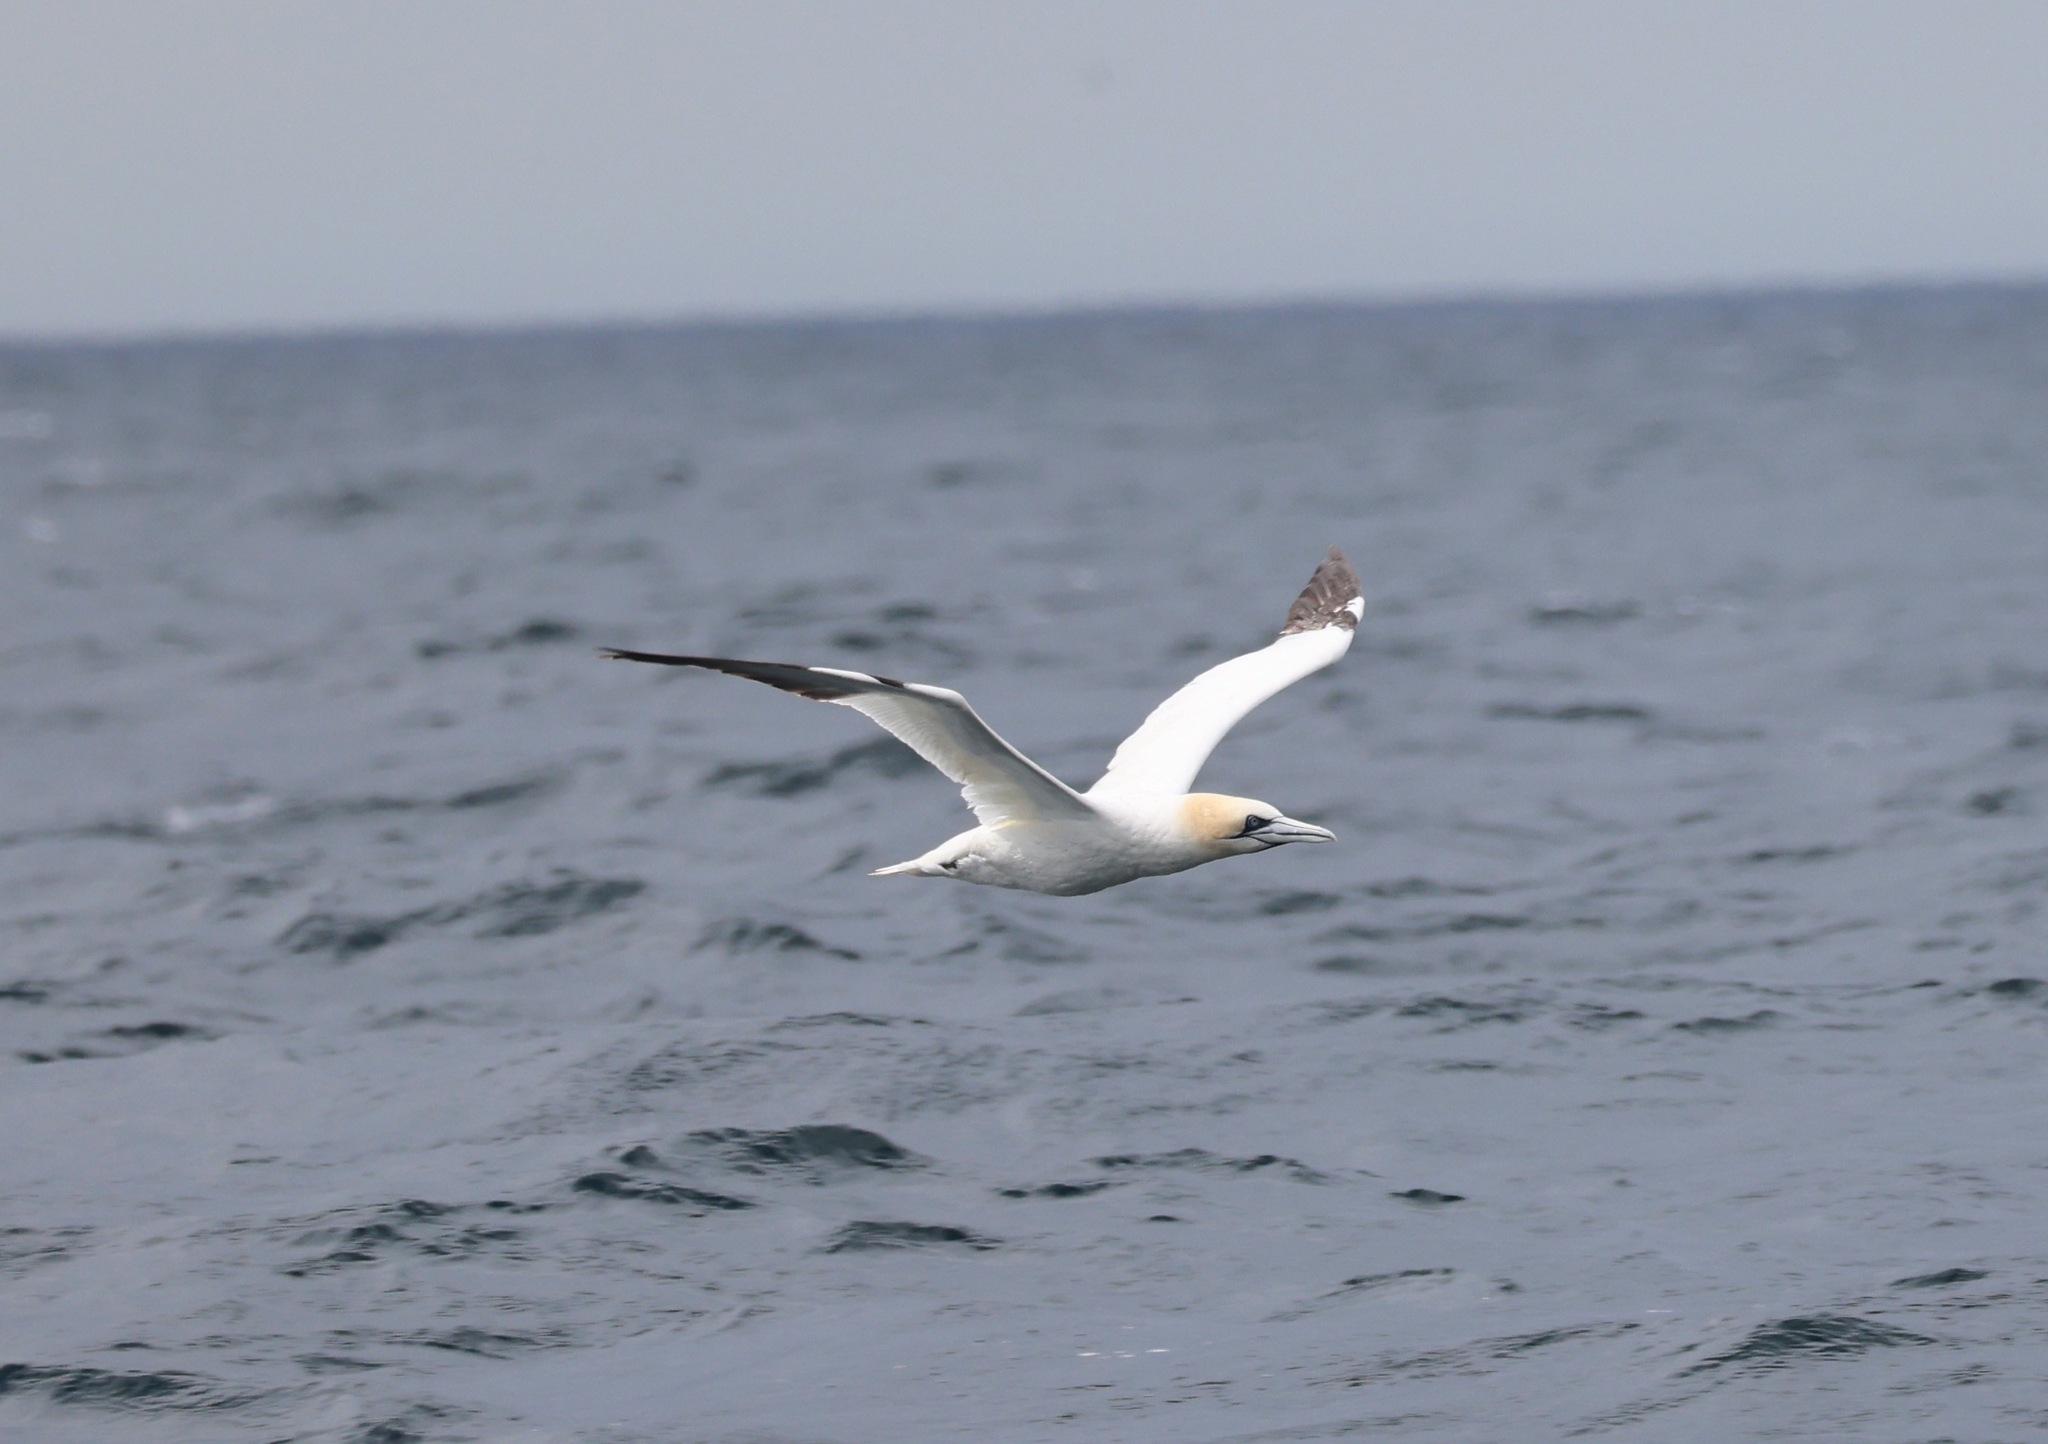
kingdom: Animalia
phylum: Chordata
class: Aves
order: Suliformes
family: Sulidae
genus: Morus
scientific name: Morus bassanus
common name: Northern gannet
